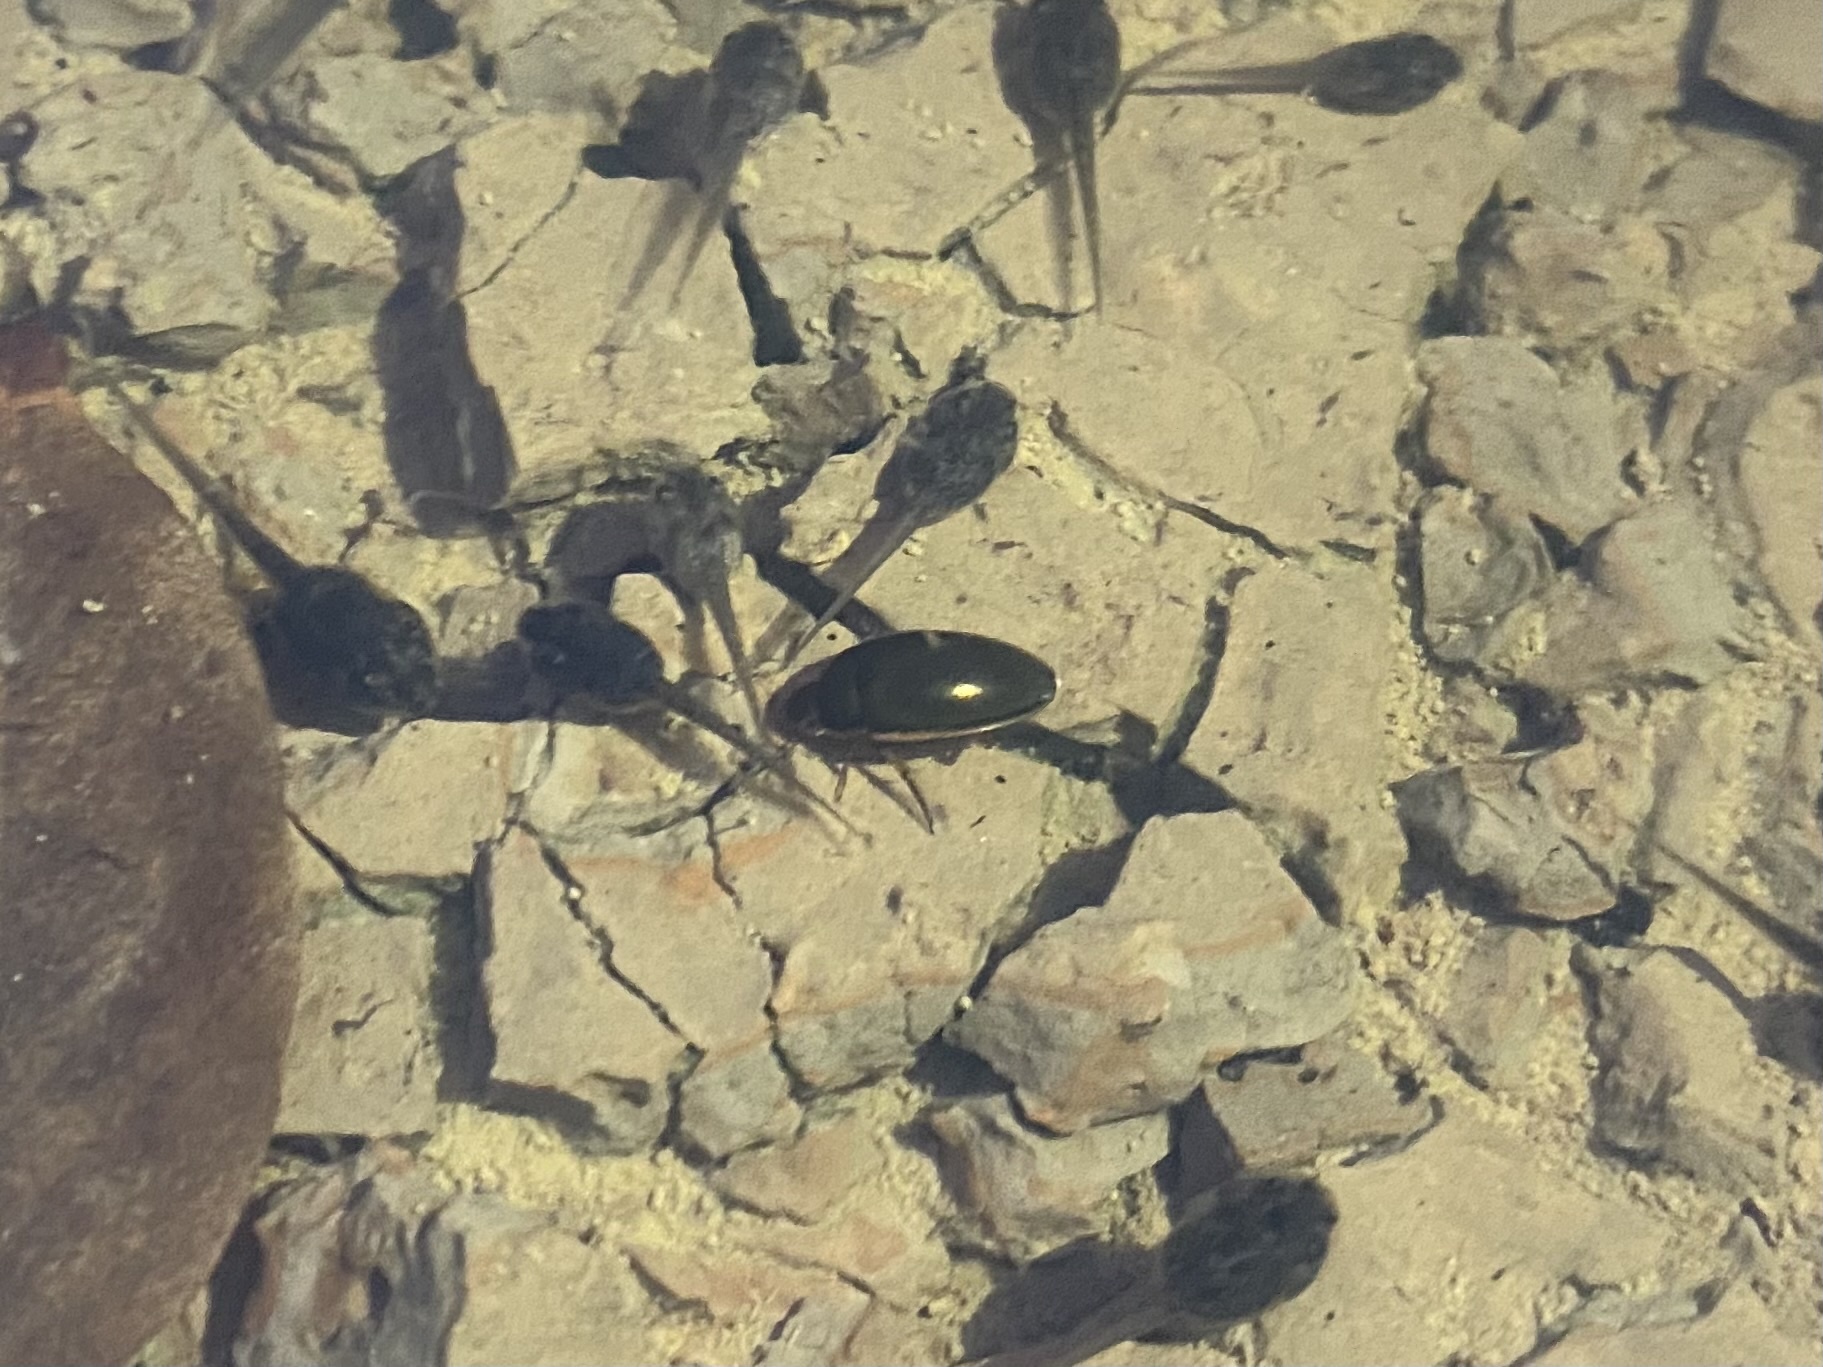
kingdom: Animalia
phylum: Arthropoda
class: Insecta
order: Coleoptera
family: Hydrophilidae
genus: Tropisternus
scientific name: Tropisternus lateralis
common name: Lateral-banded water scavenger beetle
